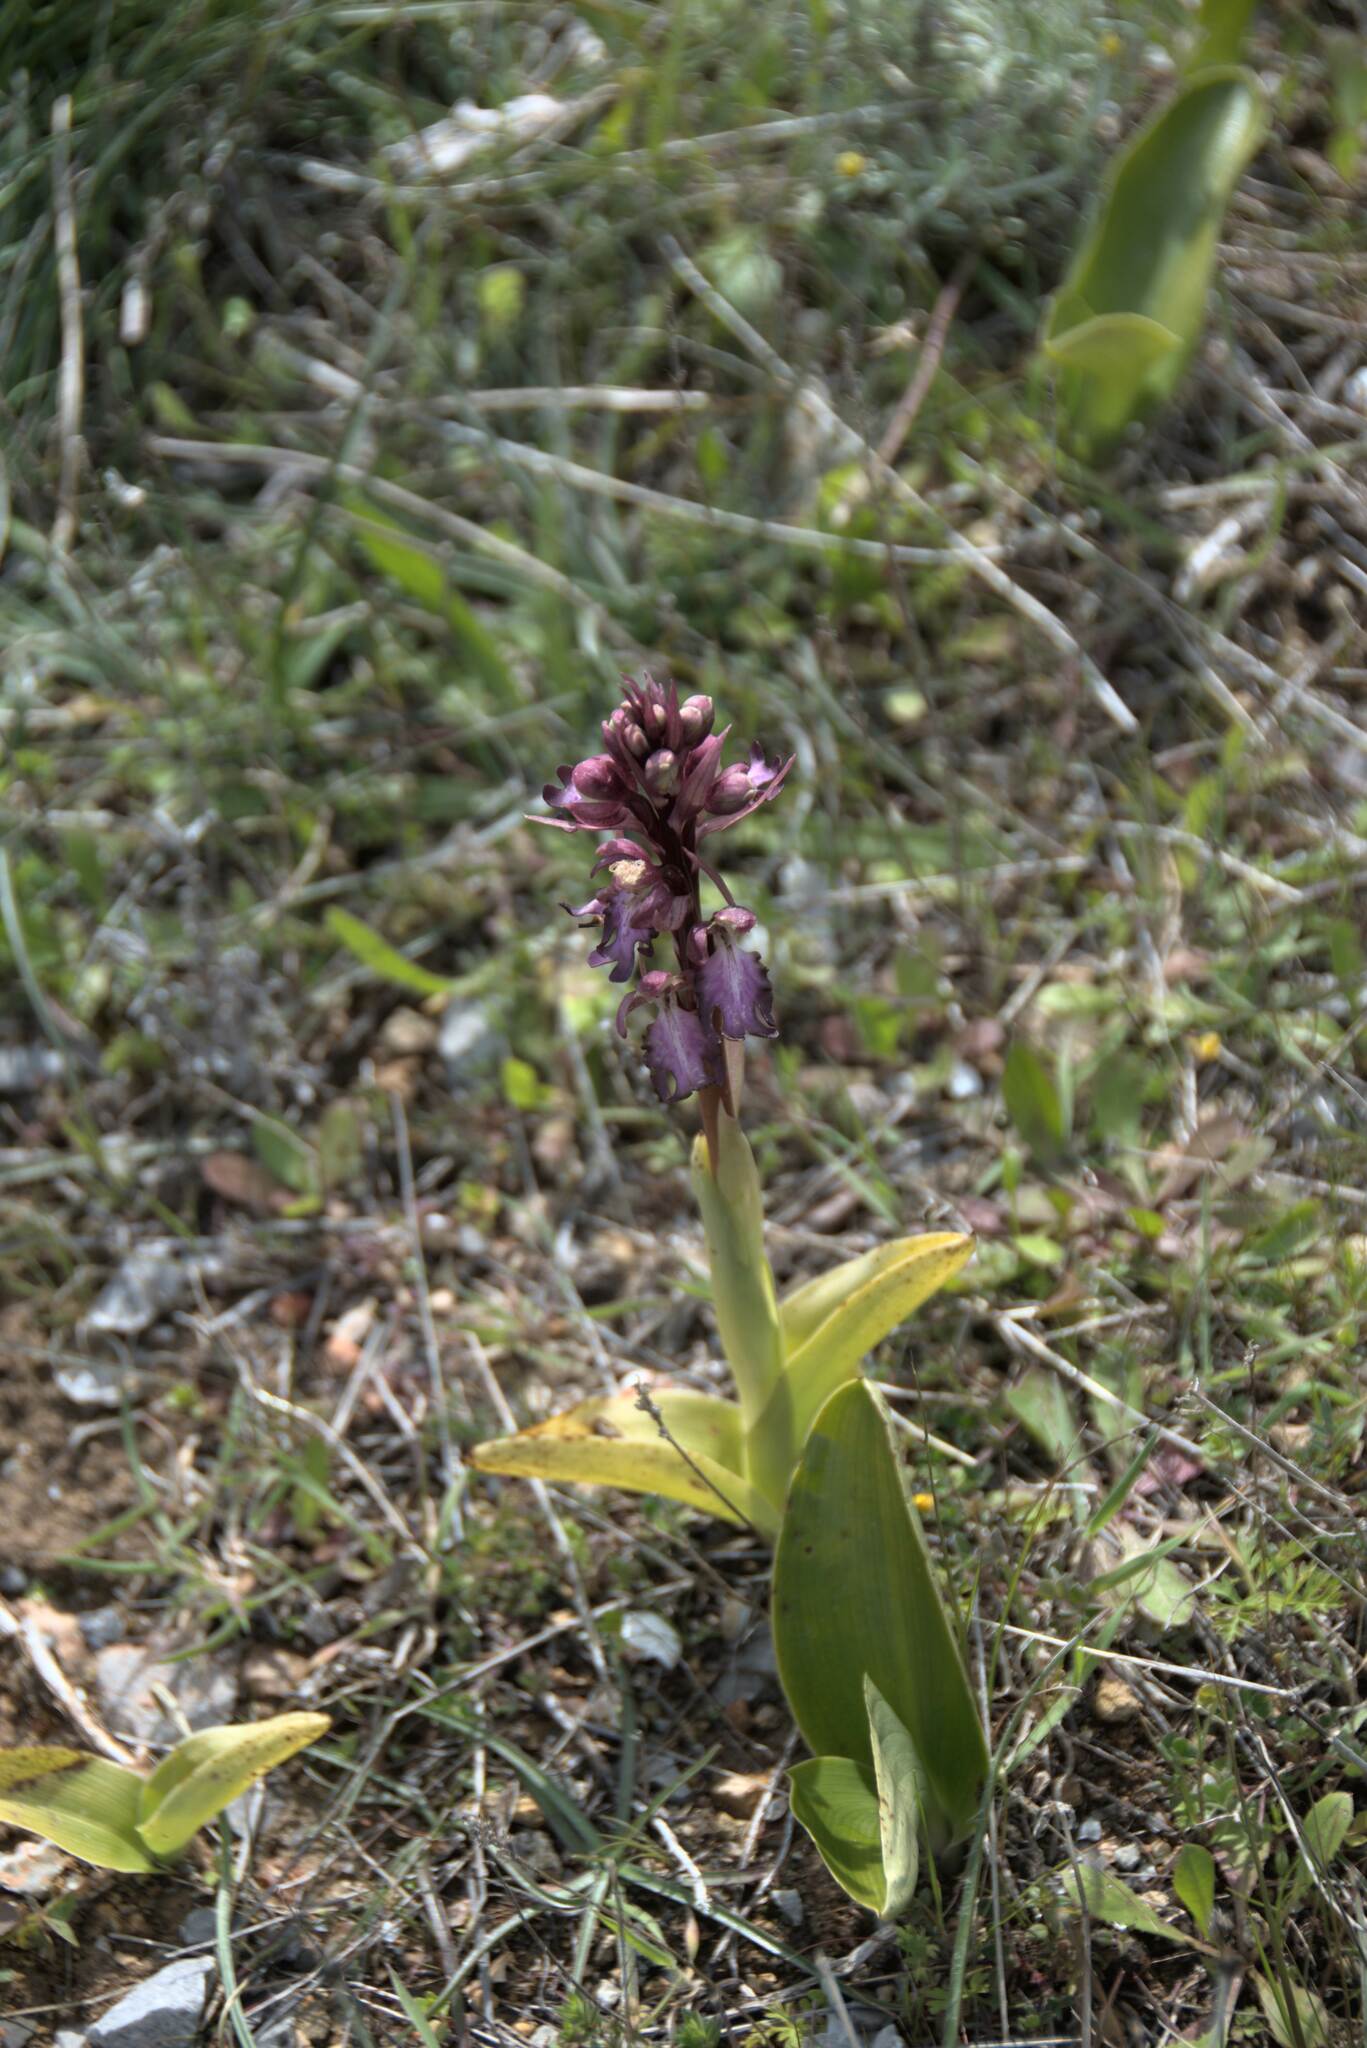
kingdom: Plantae
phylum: Tracheophyta
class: Liliopsida
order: Asparagales
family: Orchidaceae
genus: Himantoglossum
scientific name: Himantoglossum robertianum
